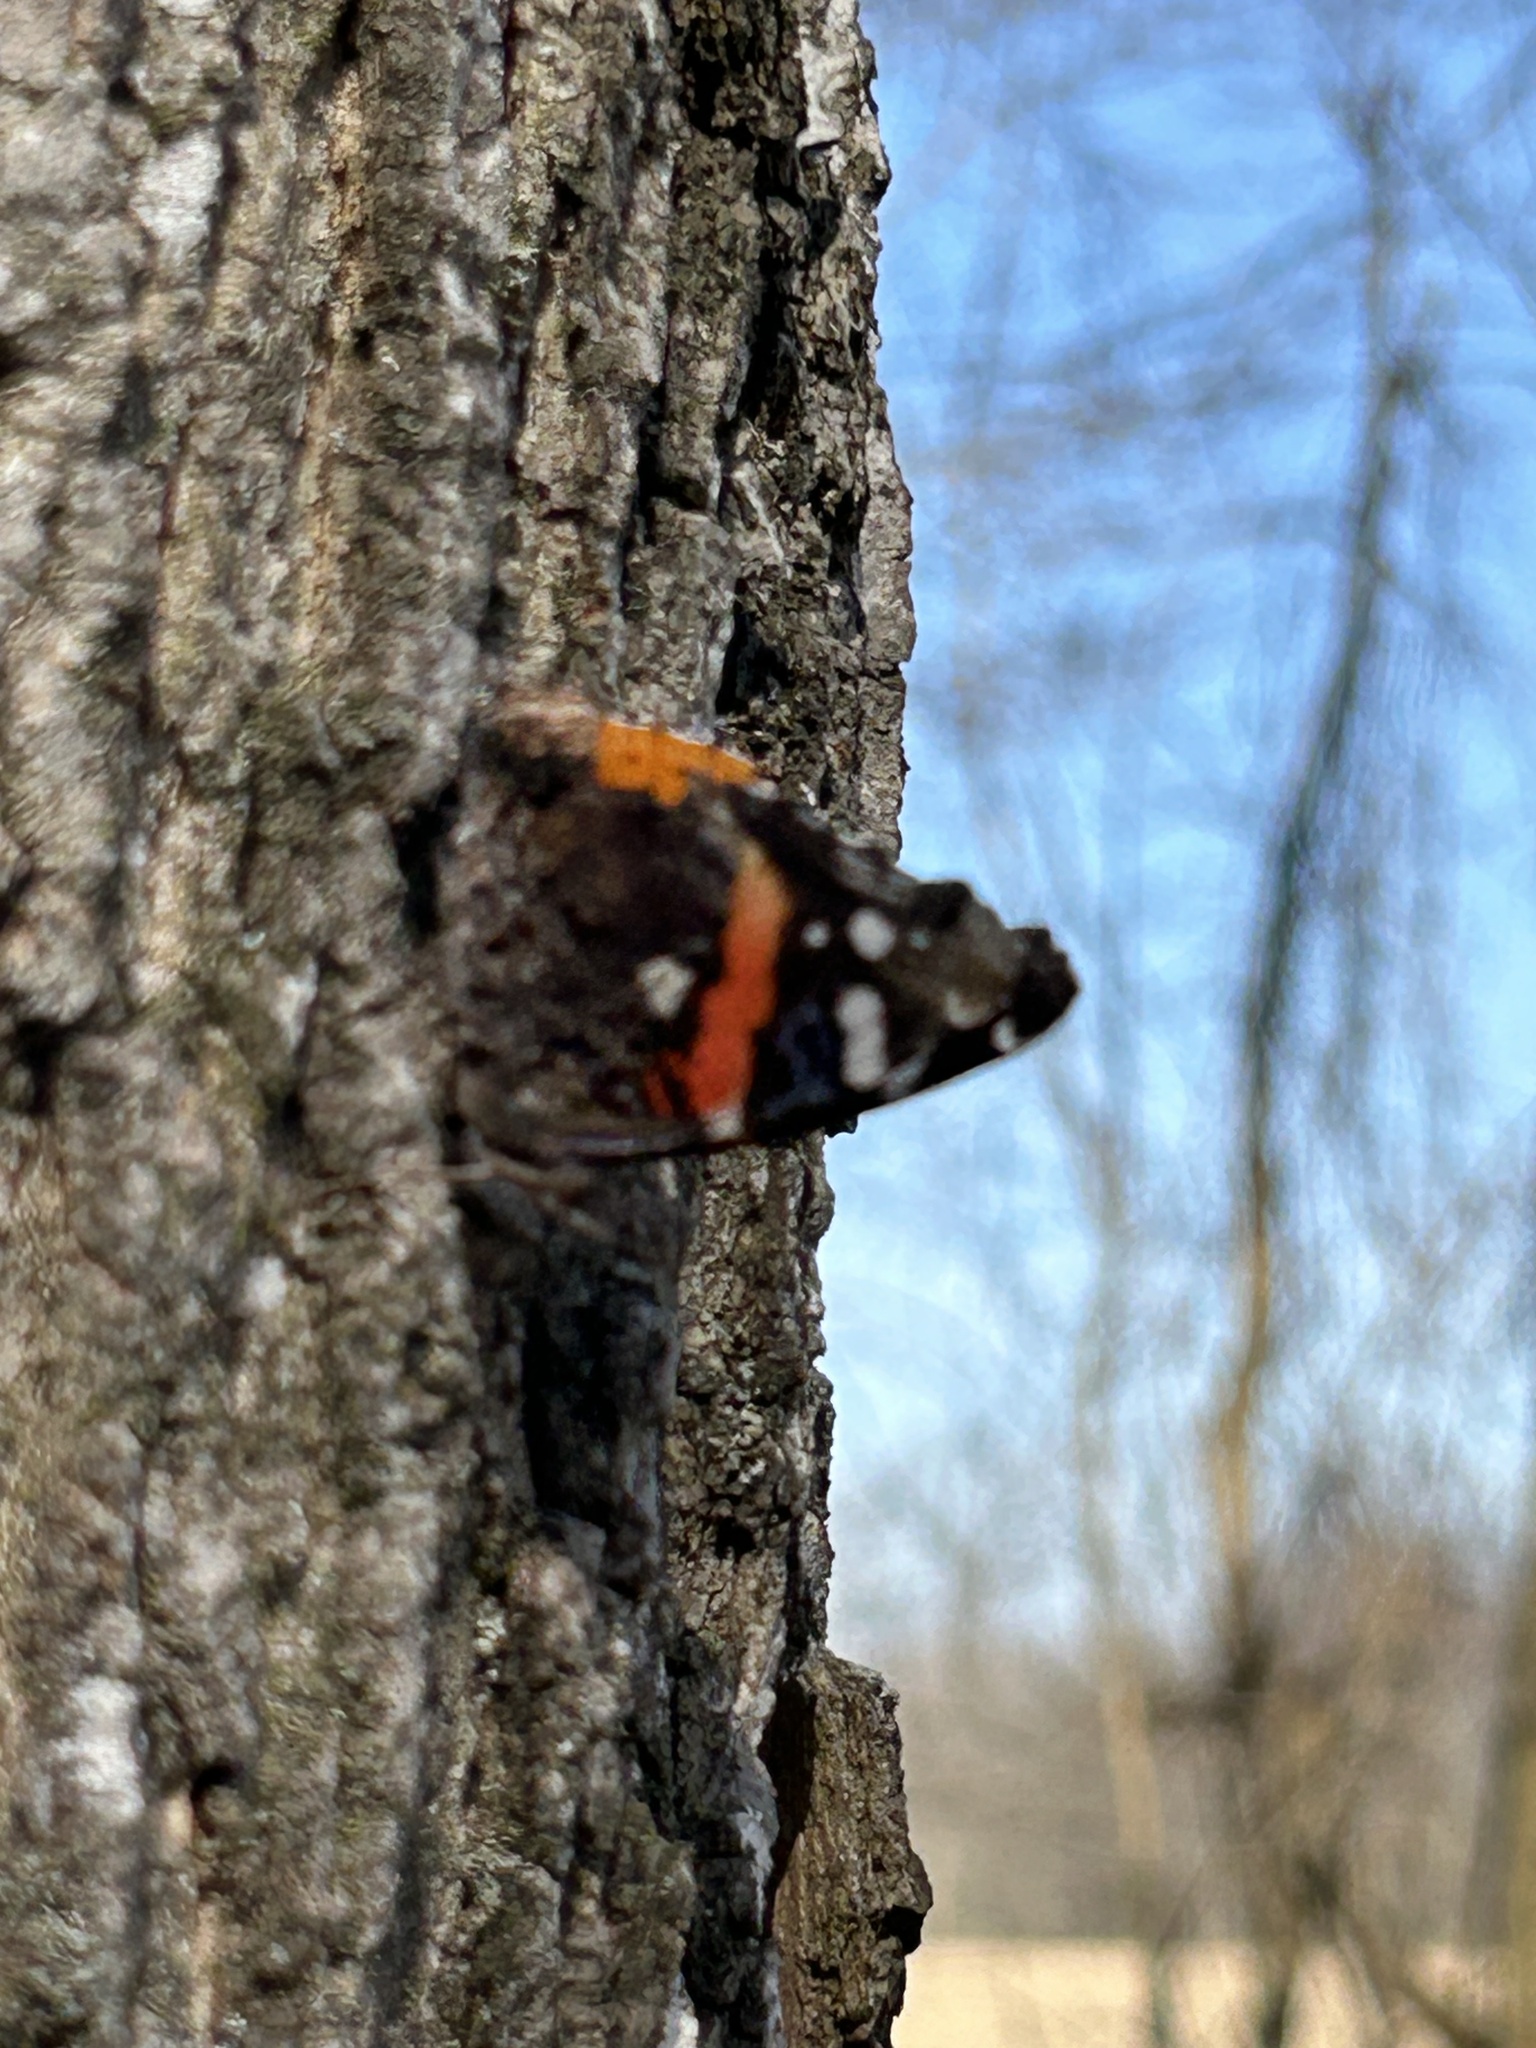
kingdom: Animalia
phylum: Arthropoda
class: Insecta
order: Lepidoptera
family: Nymphalidae
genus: Vanessa
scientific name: Vanessa atalanta
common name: Red admiral
